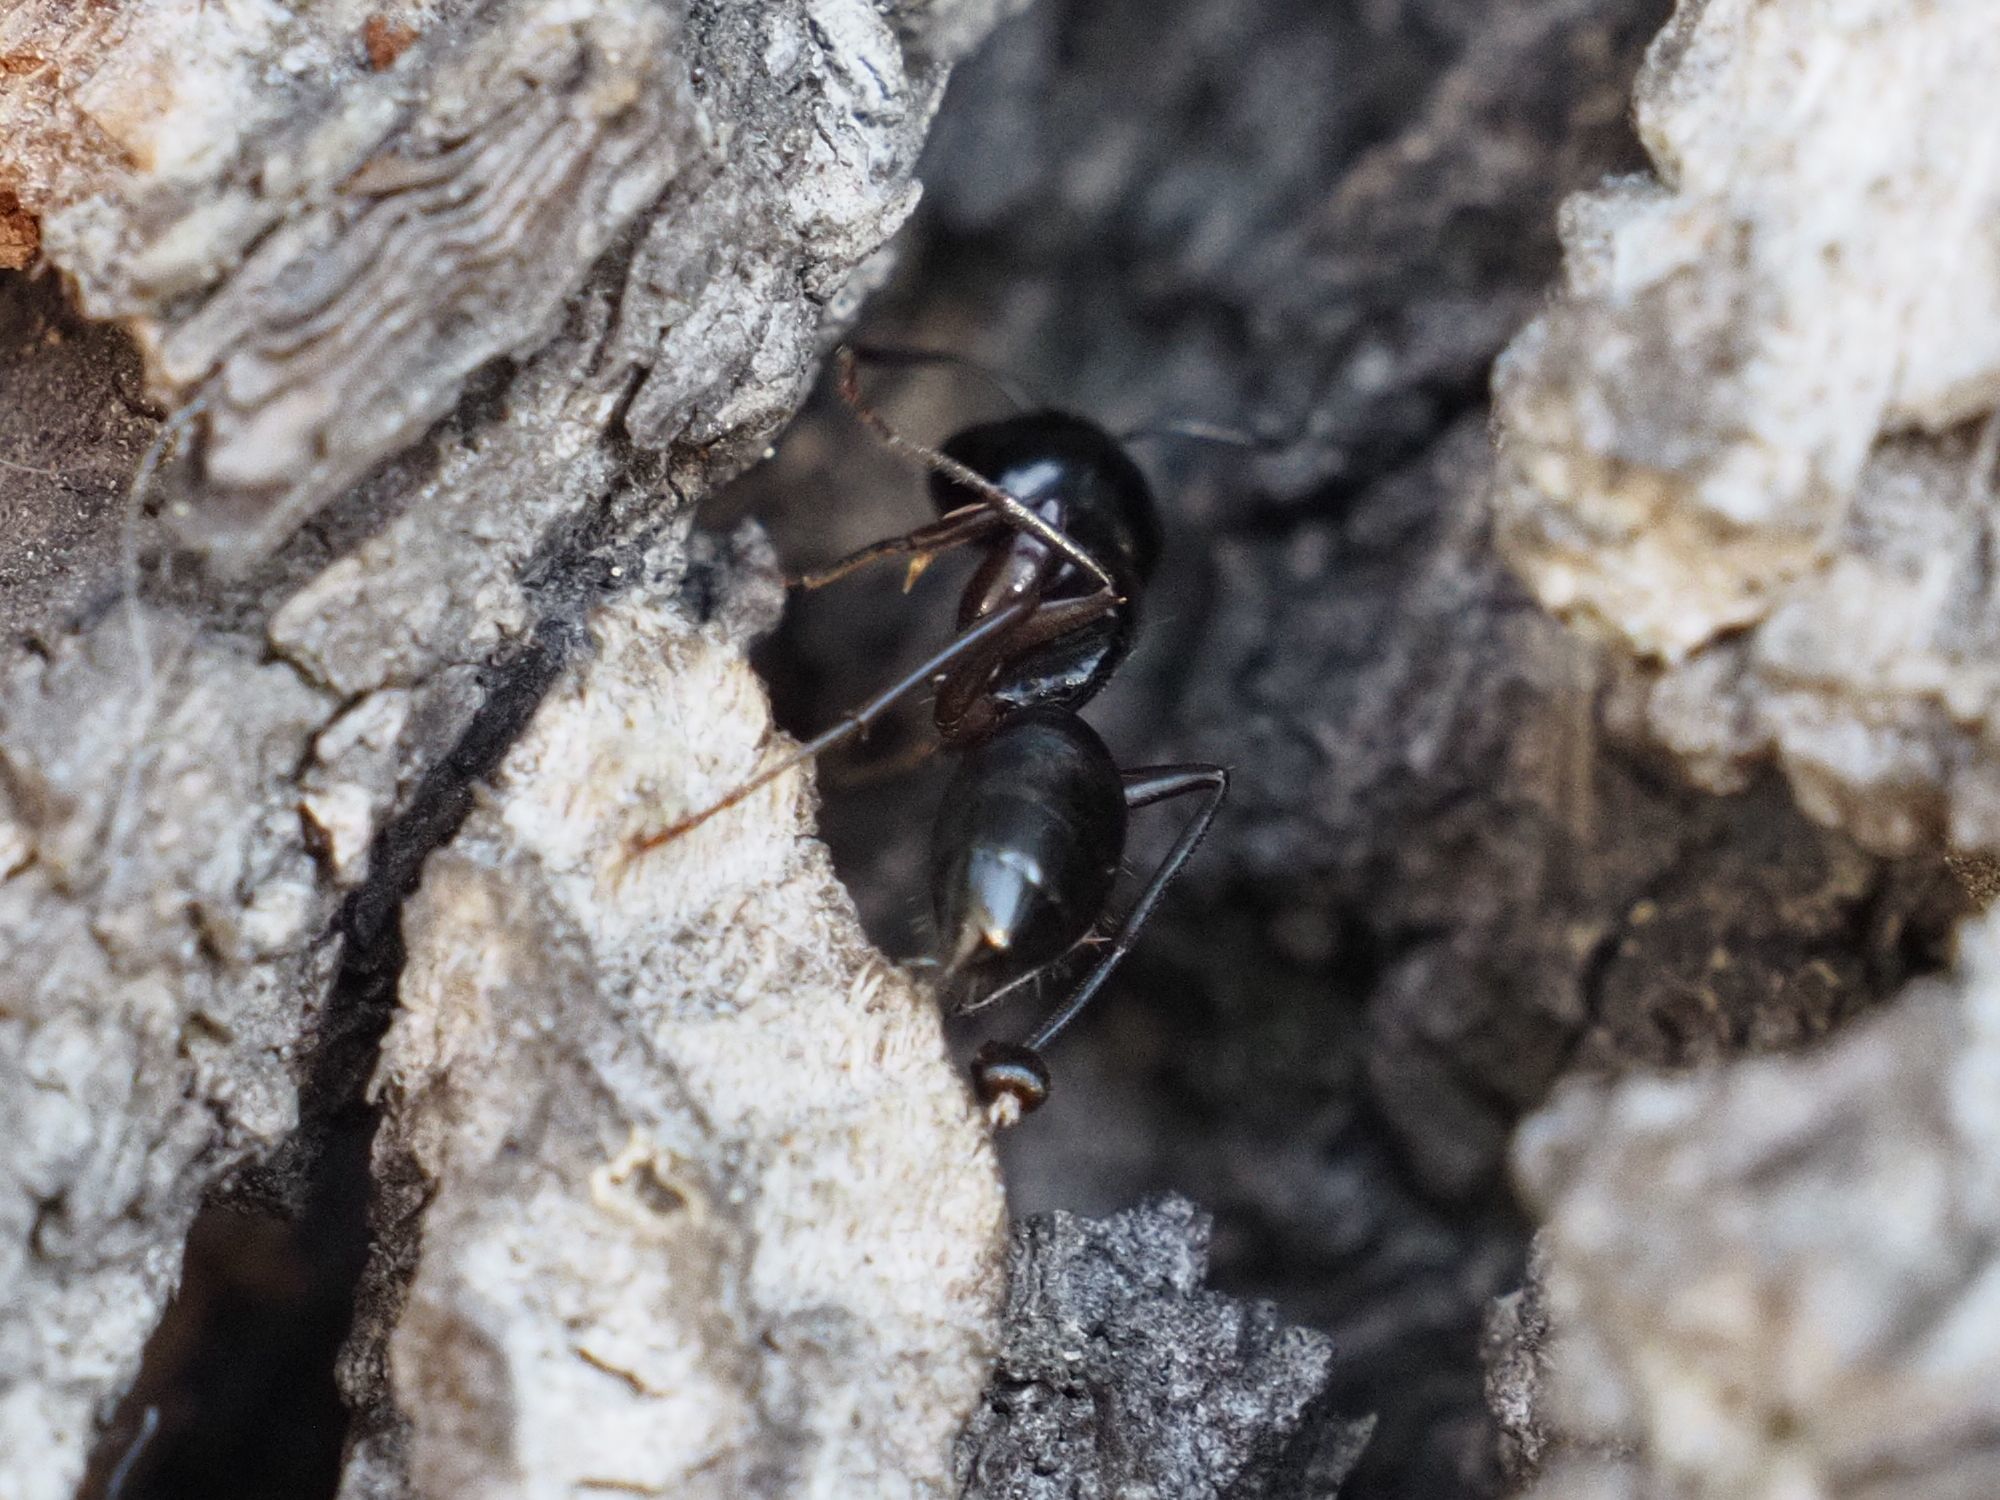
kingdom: Animalia
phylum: Arthropoda
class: Insecta
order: Hymenoptera
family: Formicidae
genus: Camponotus
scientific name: Camponotus fallax
